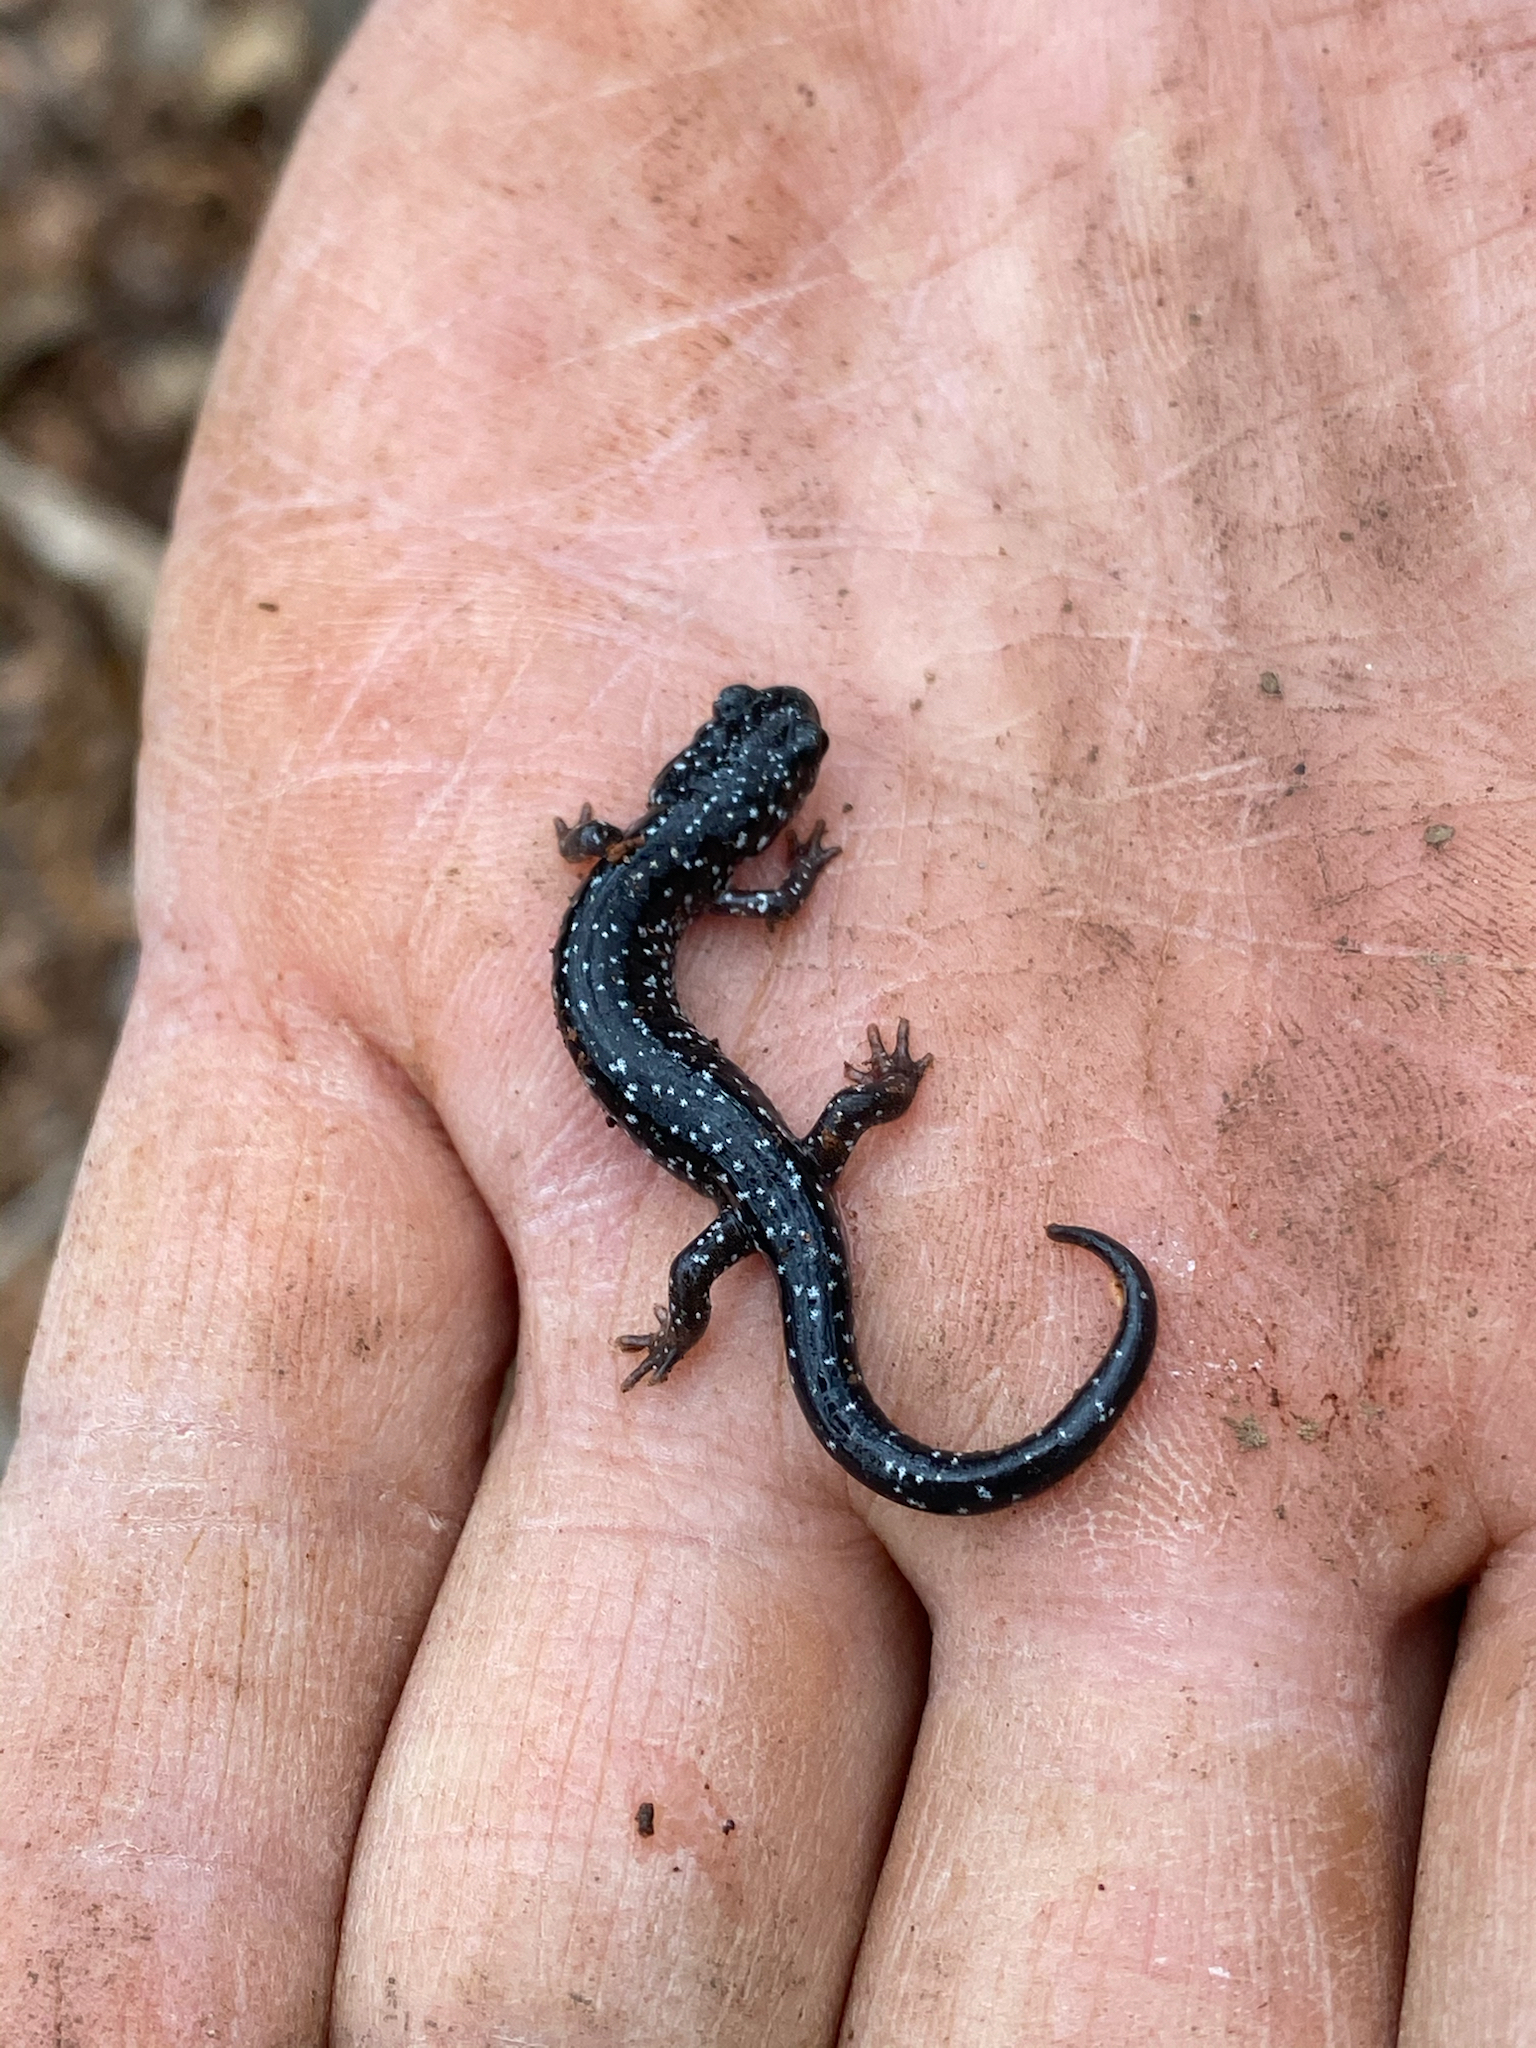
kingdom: Animalia
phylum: Chordata
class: Amphibia
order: Caudata
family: Plethodontidae
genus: Plethodon
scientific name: Plethodon cylindraceus
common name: White-spotted slimy salamander
